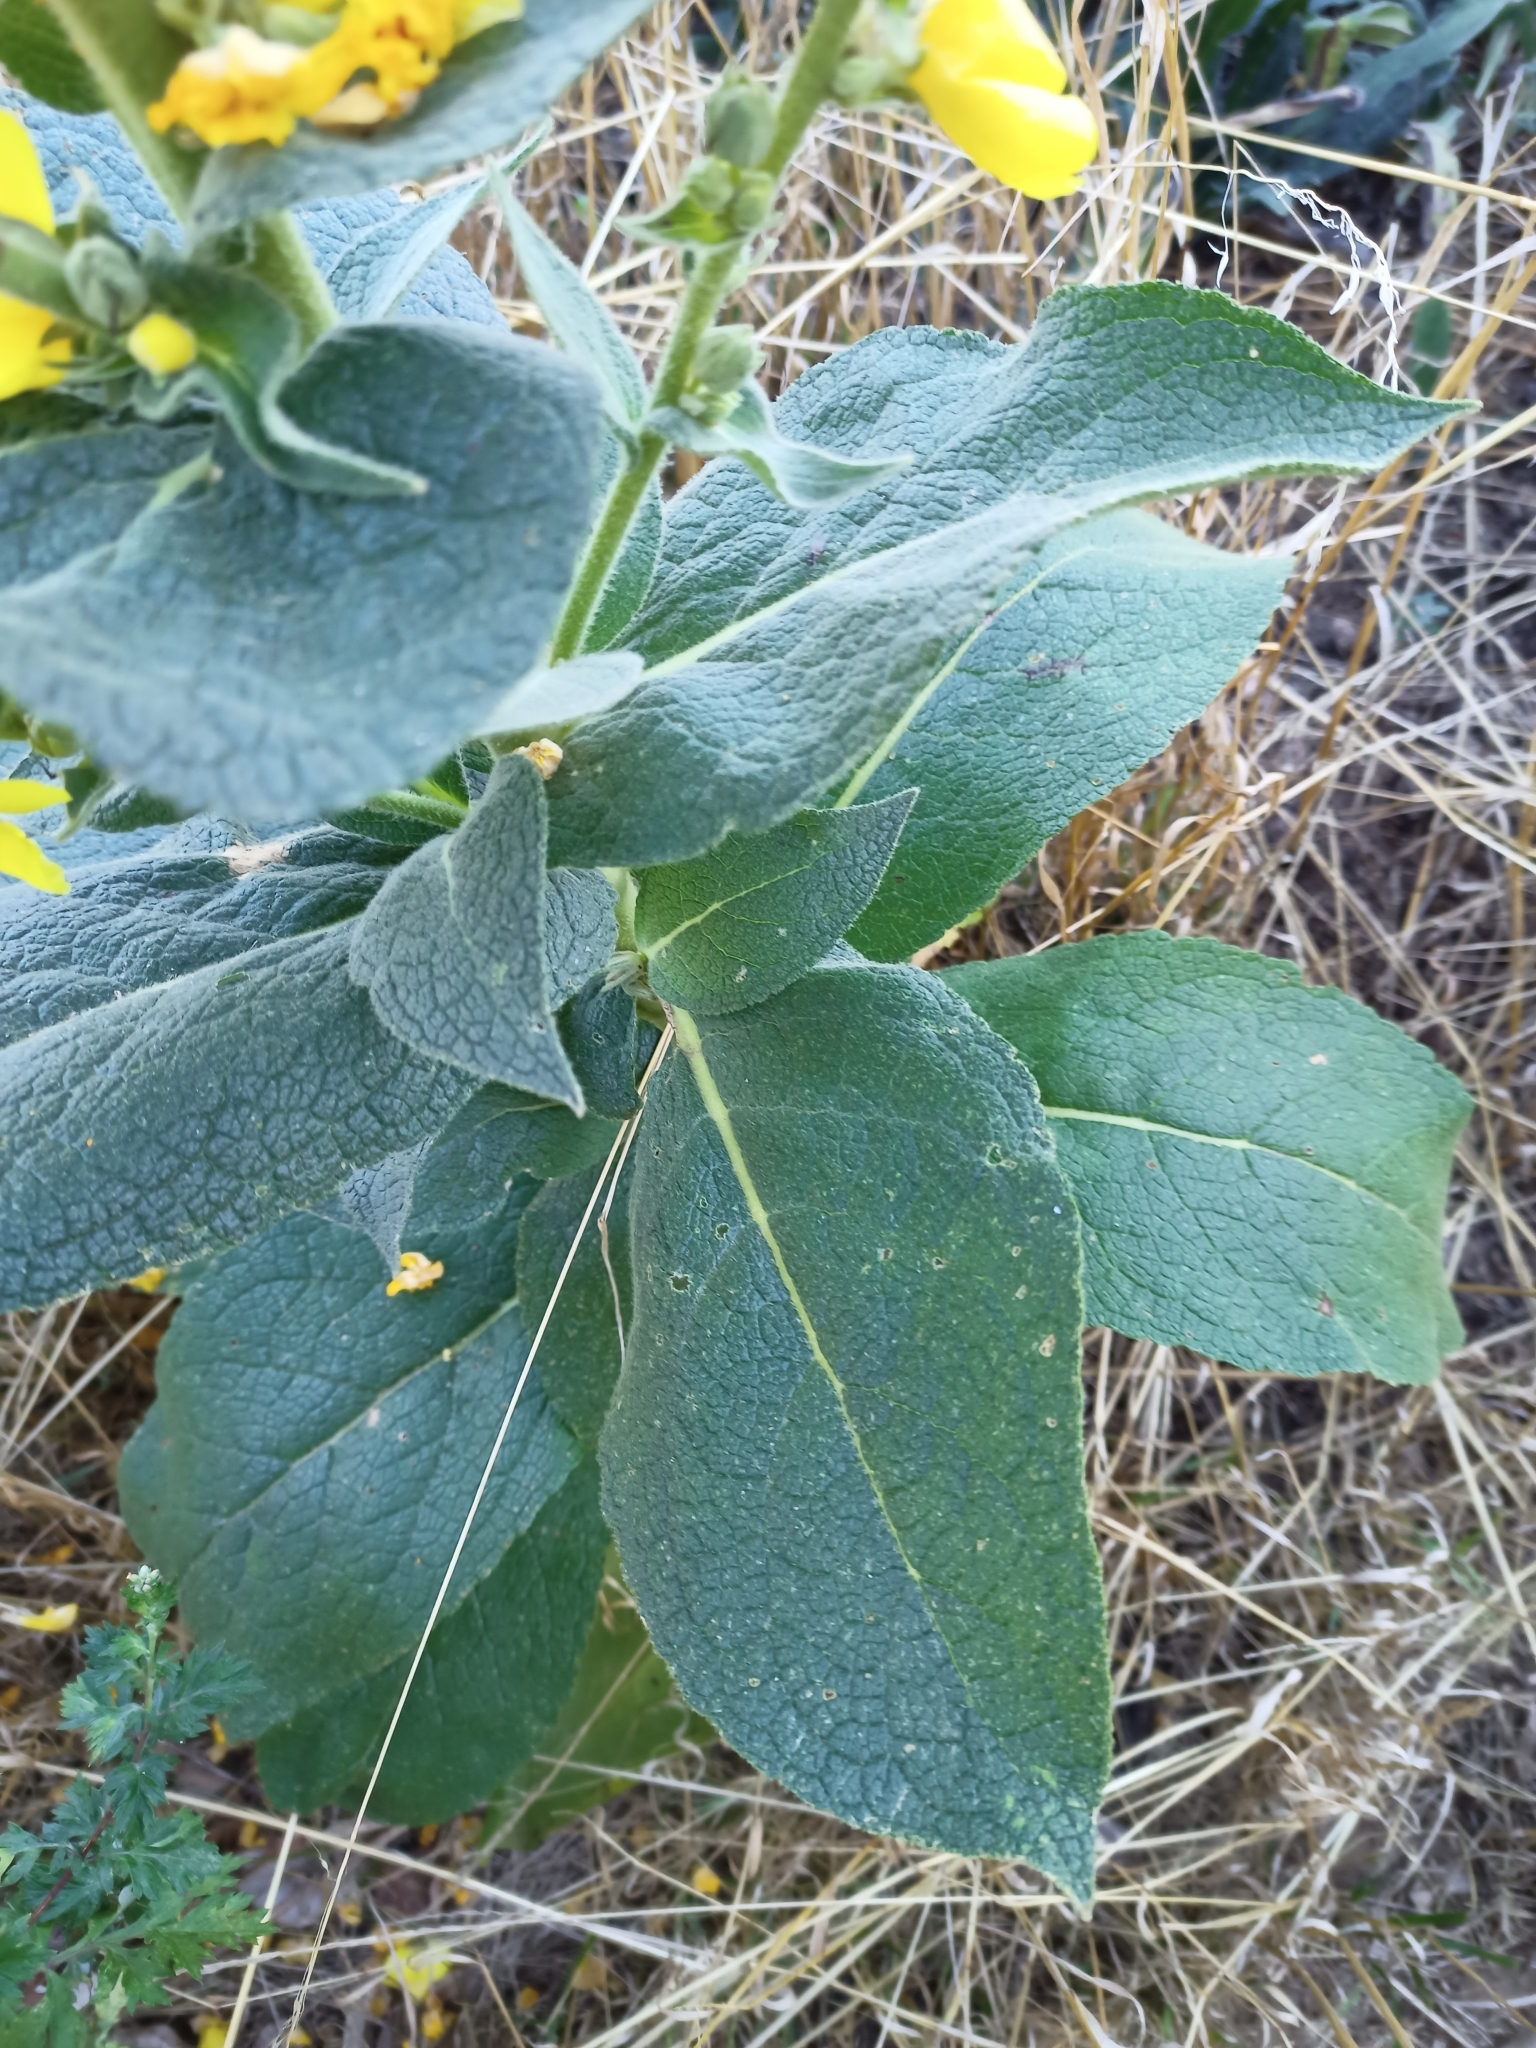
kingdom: Plantae
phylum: Tracheophyta
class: Magnoliopsida
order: Lamiales
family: Scrophulariaceae
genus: Verbascum
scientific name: Verbascum phlomoides
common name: Orange mullein
